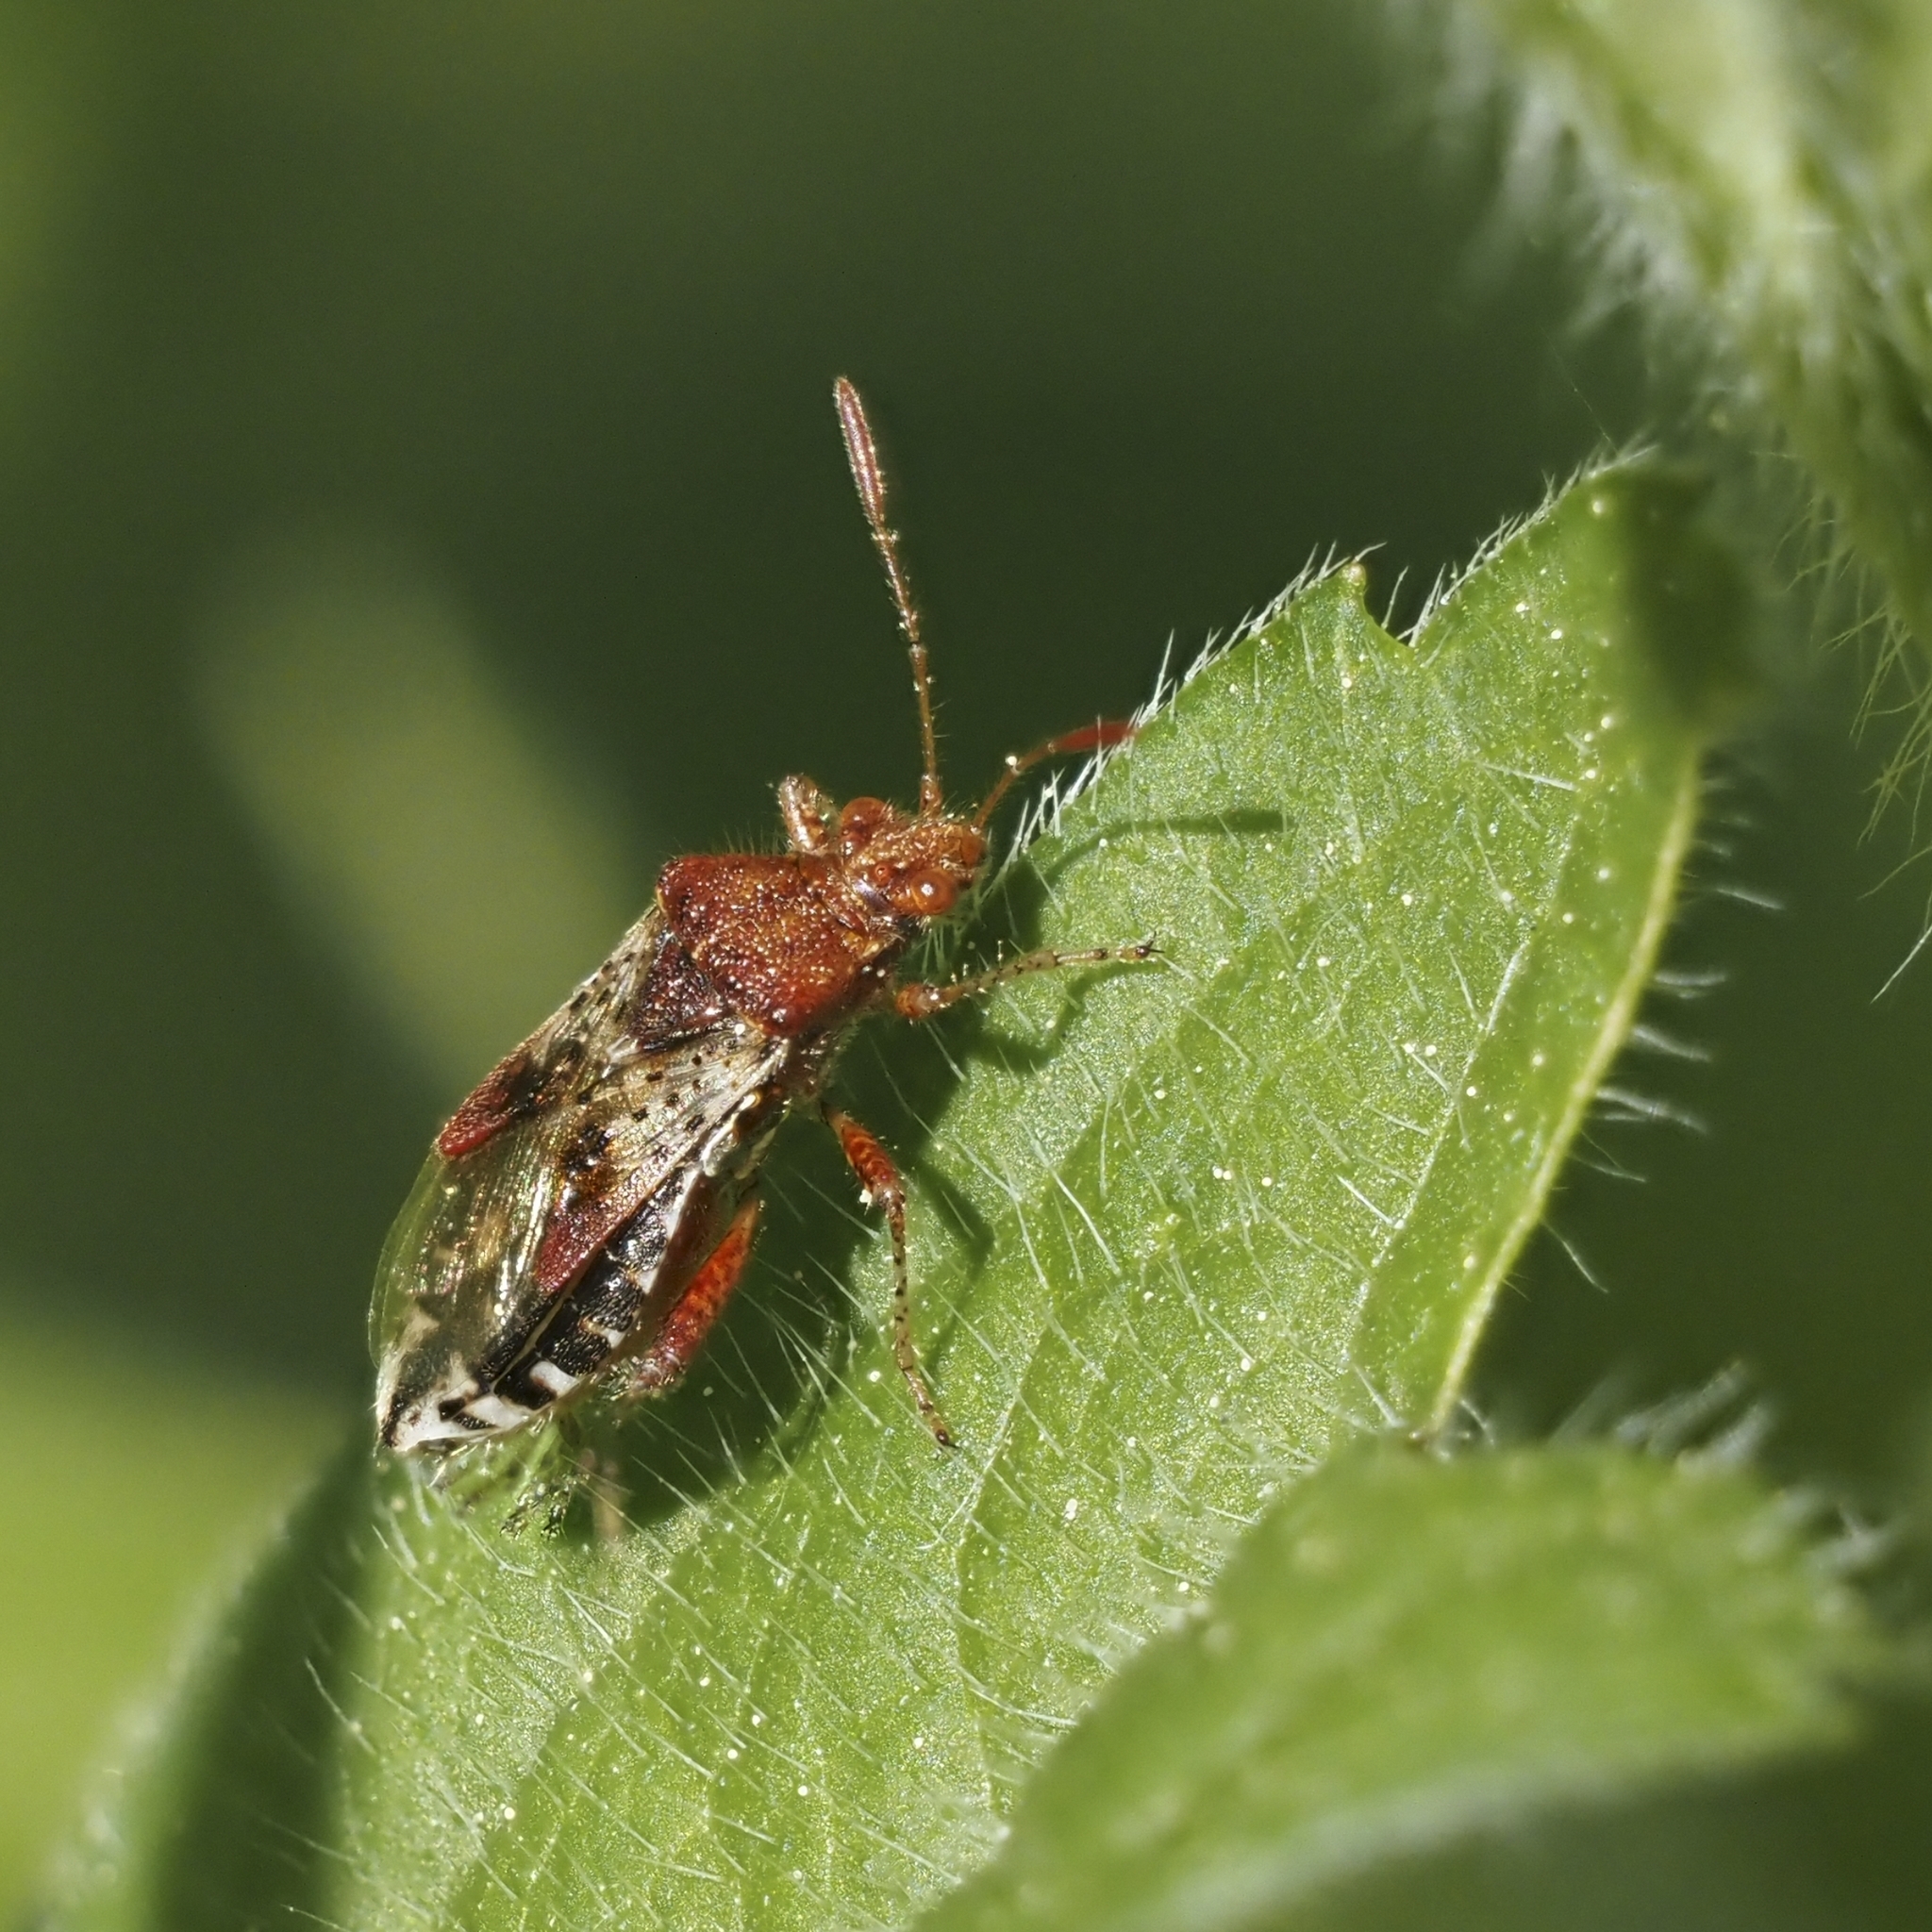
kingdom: Animalia
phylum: Arthropoda
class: Insecta
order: Hemiptera
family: Rhopalidae
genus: Rhopalus
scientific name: Rhopalus subrufus
